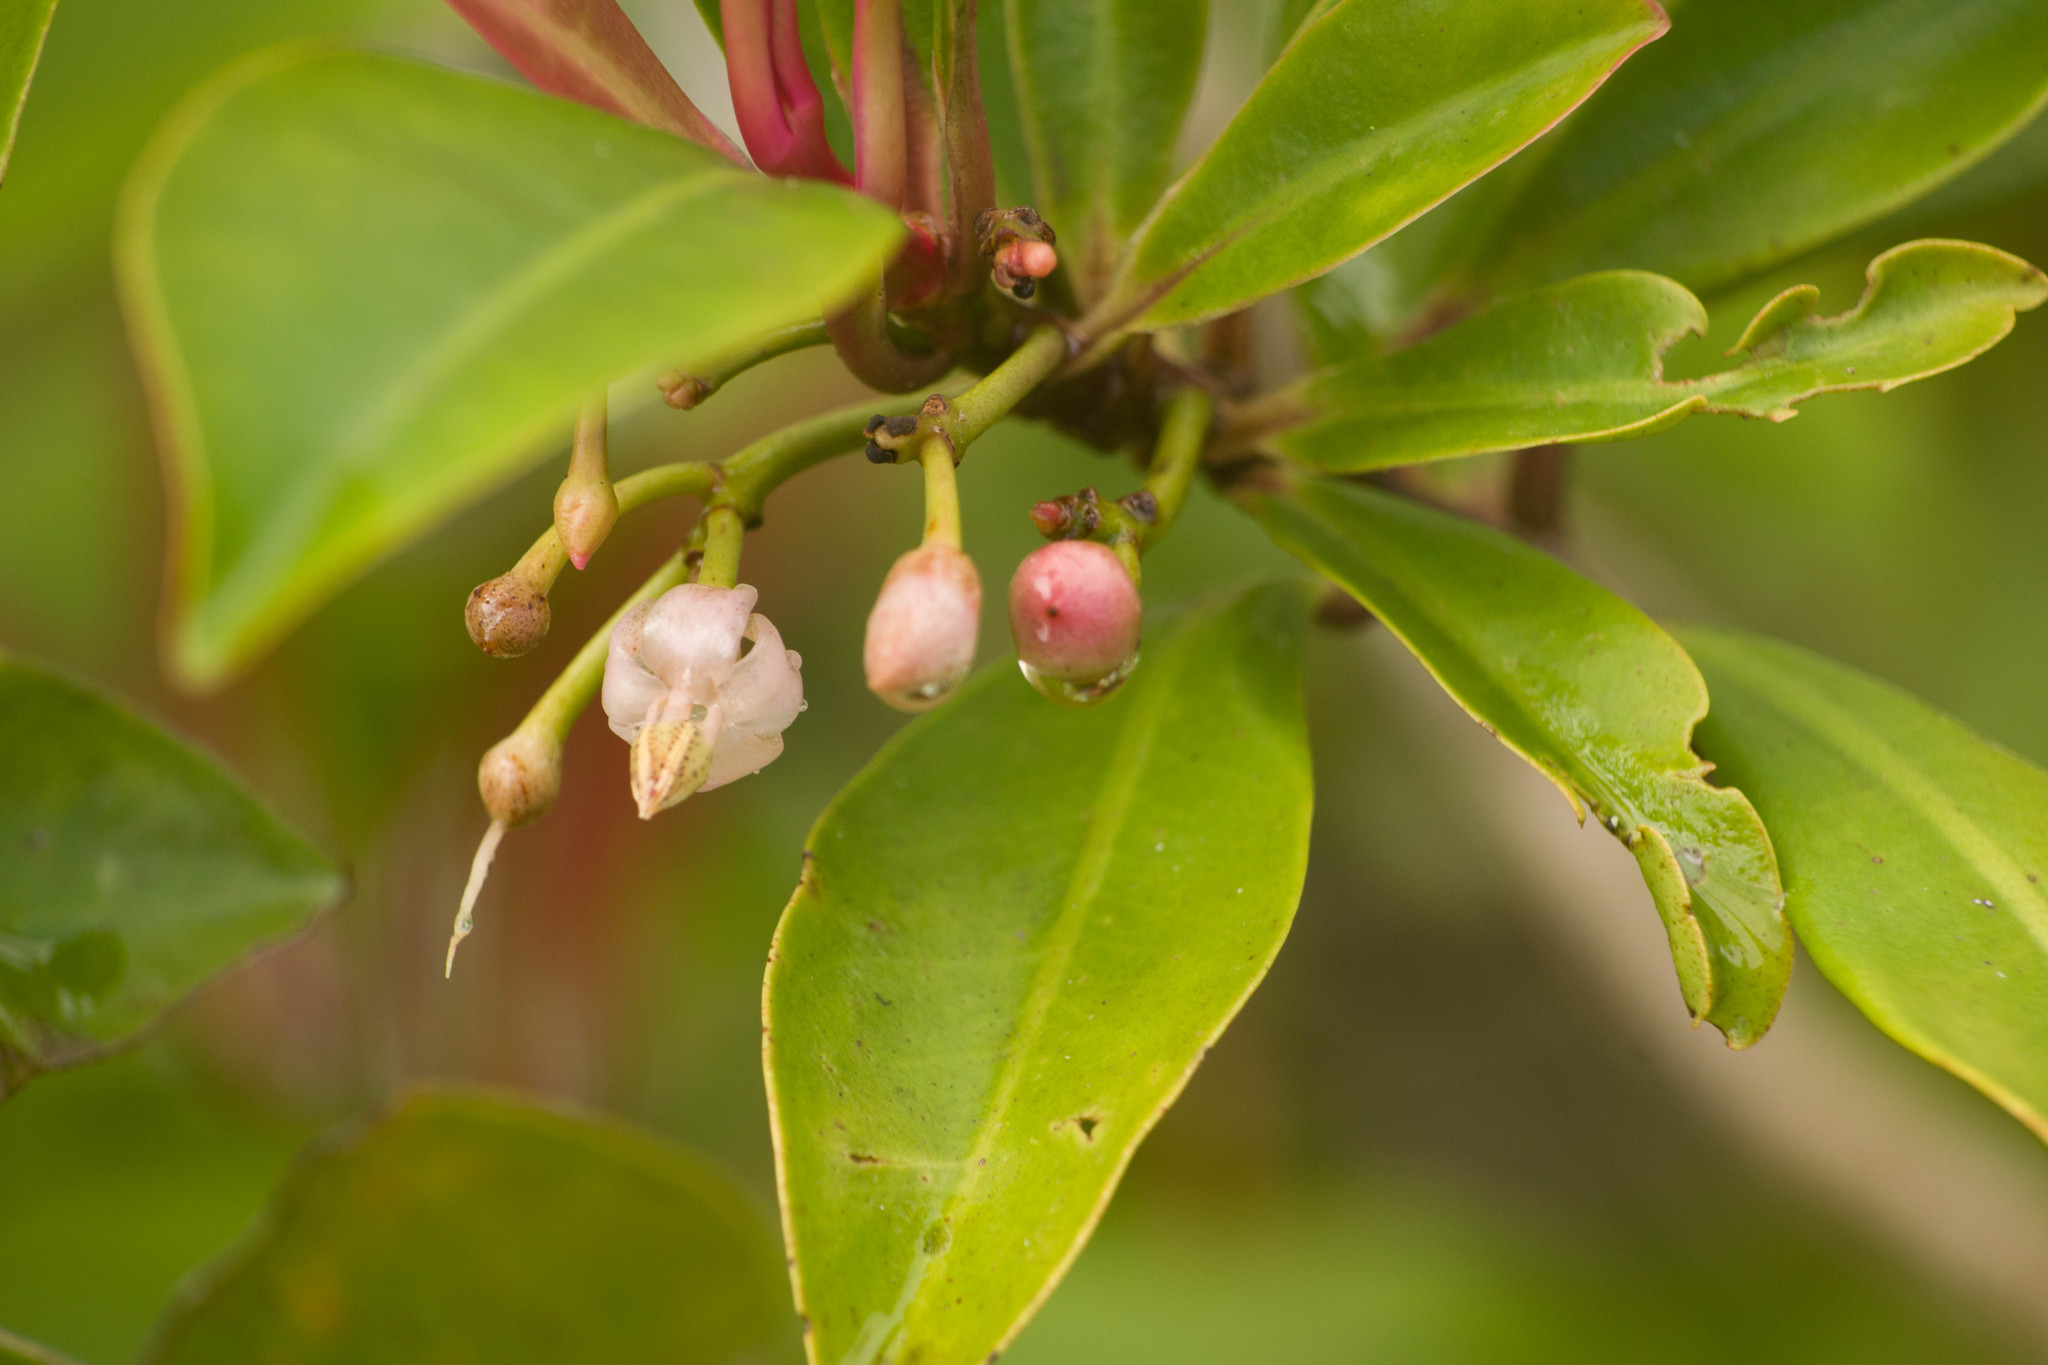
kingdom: Plantae
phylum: Tracheophyta
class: Magnoliopsida
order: Ericales
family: Primulaceae
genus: Ardisia
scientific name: Ardisia elliptica
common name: Shoebutton
